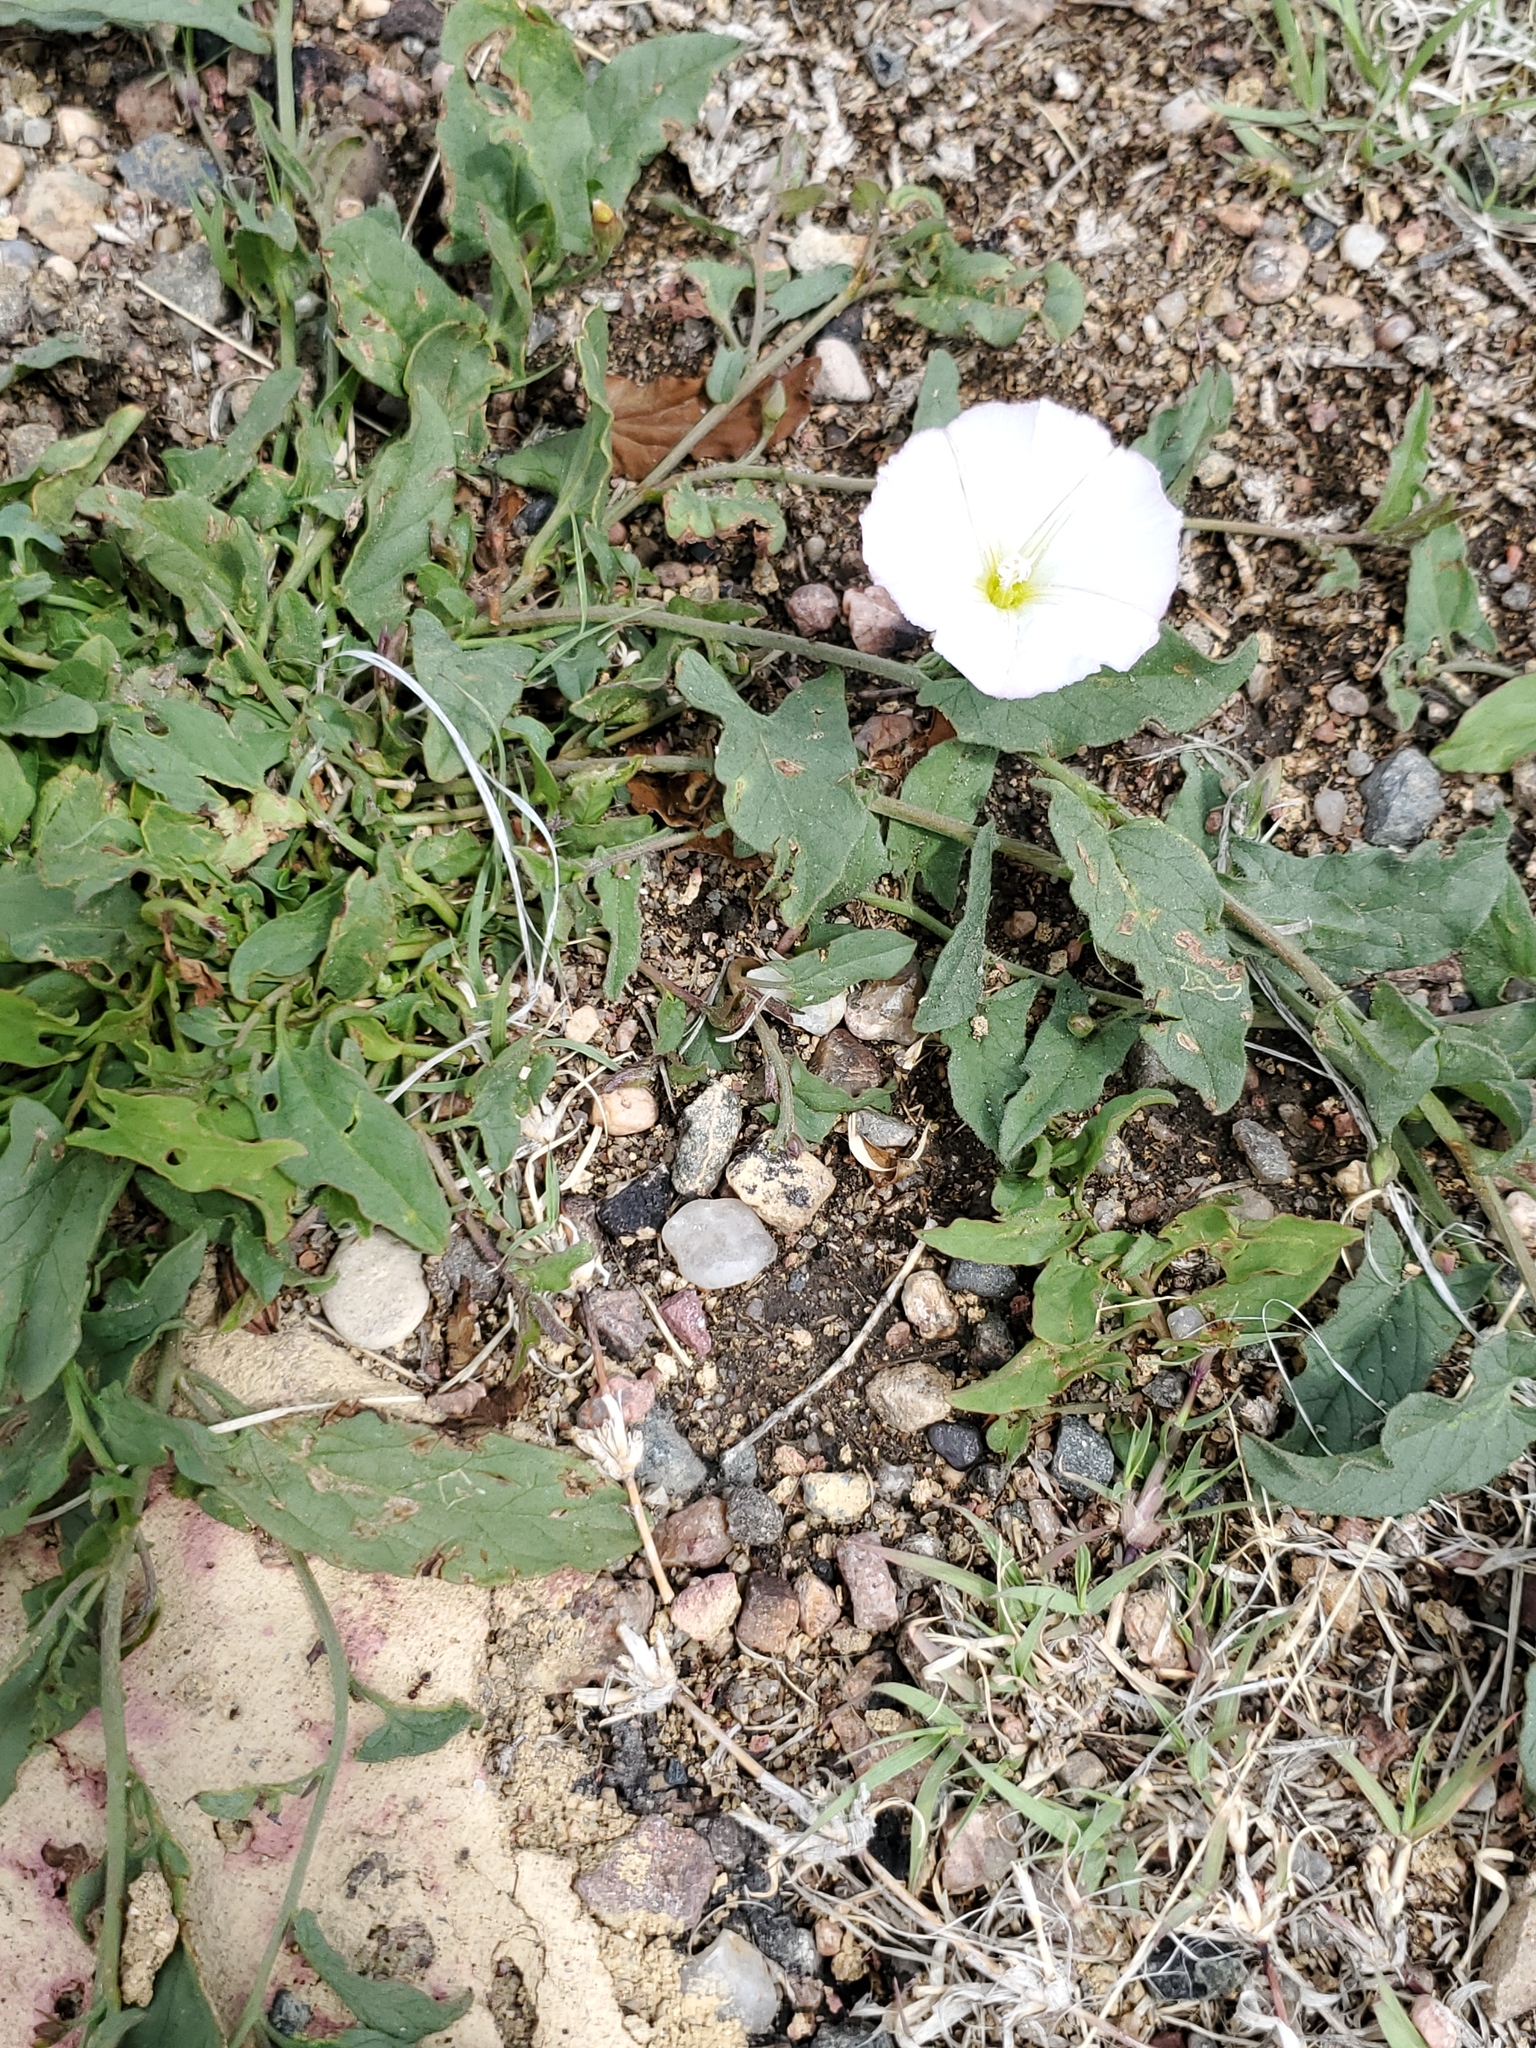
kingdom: Plantae
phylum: Tracheophyta
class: Magnoliopsida
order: Solanales
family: Convolvulaceae
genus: Convolvulus
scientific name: Convolvulus arvensis
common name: Field bindweed
